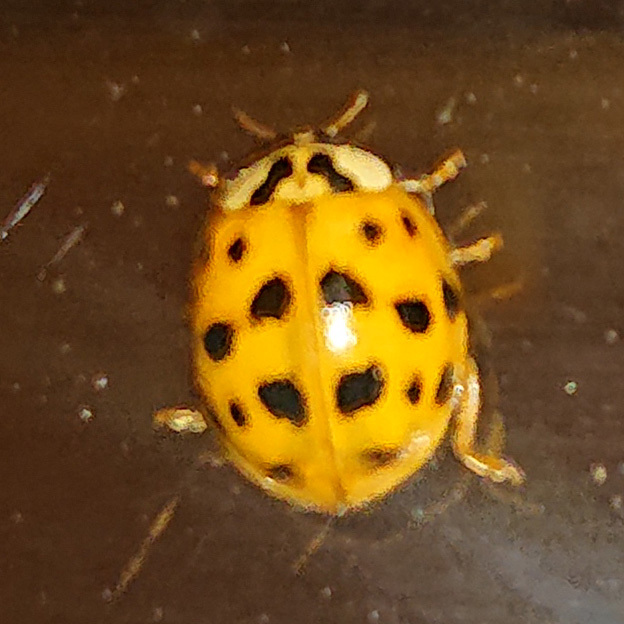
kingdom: Animalia
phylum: Arthropoda
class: Insecta
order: Coleoptera
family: Coccinellidae
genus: Harmonia
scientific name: Harmonia axyridis
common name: Harlequin ladybird
